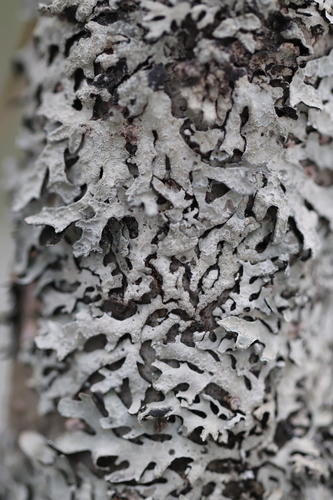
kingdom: Fungi
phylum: Ascomycota
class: Lecanoromycetes
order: Lecanorales
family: Parmeliaceae
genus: Parmelia
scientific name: Parmelia sulcata
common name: Netted shield lichen
